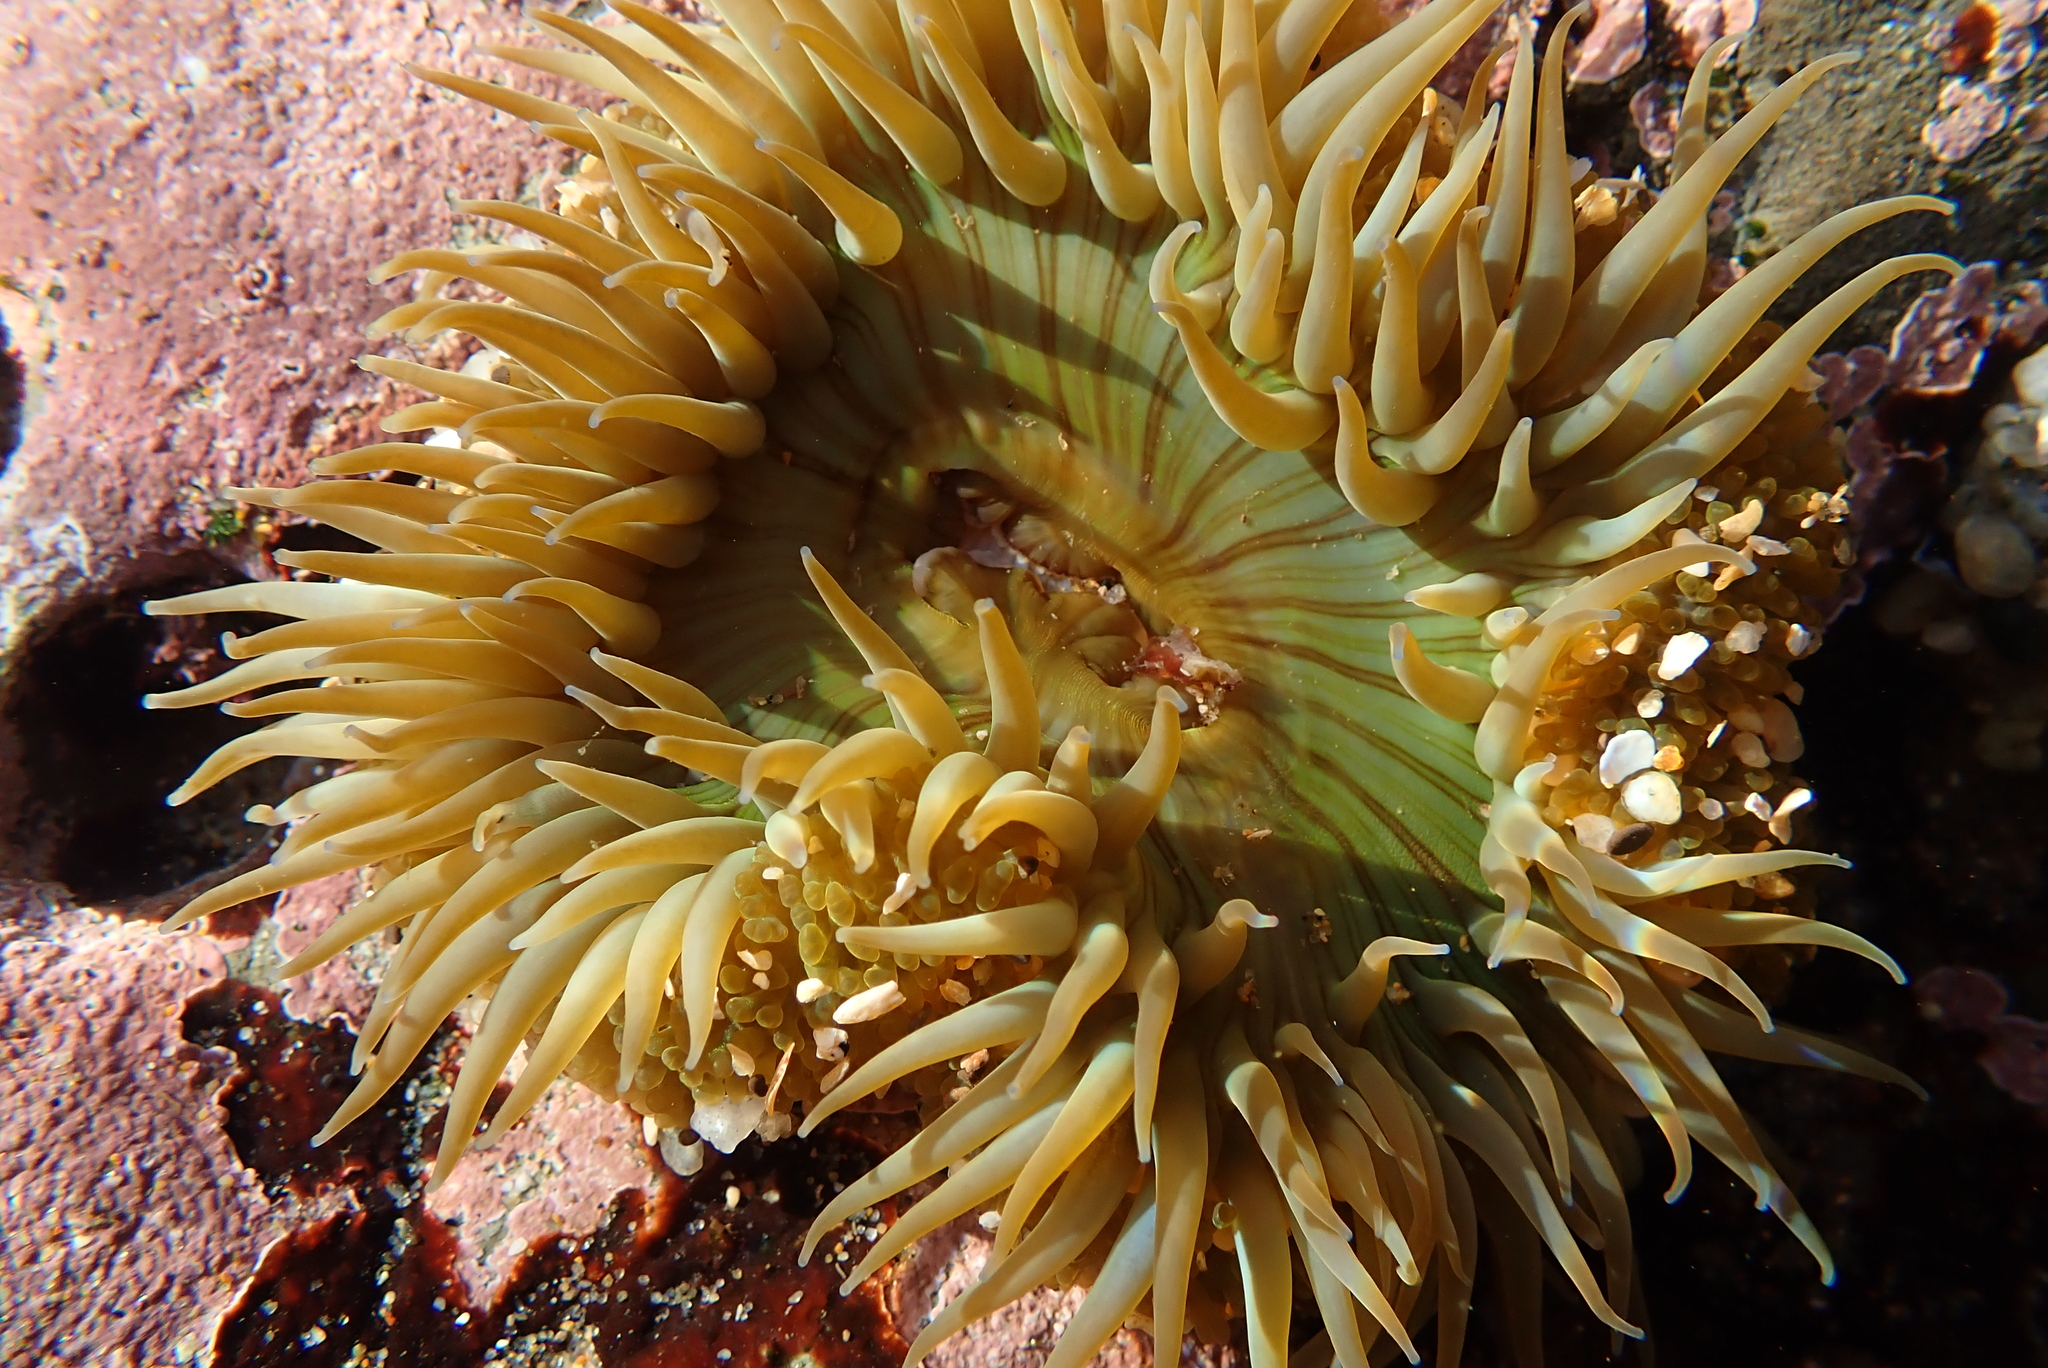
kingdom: Animalia
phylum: Cnidaria
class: Anthozoa
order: Actiniaria
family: Actiniidae
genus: Anthopleura
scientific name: Anthopleura sola
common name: Sun anemone
